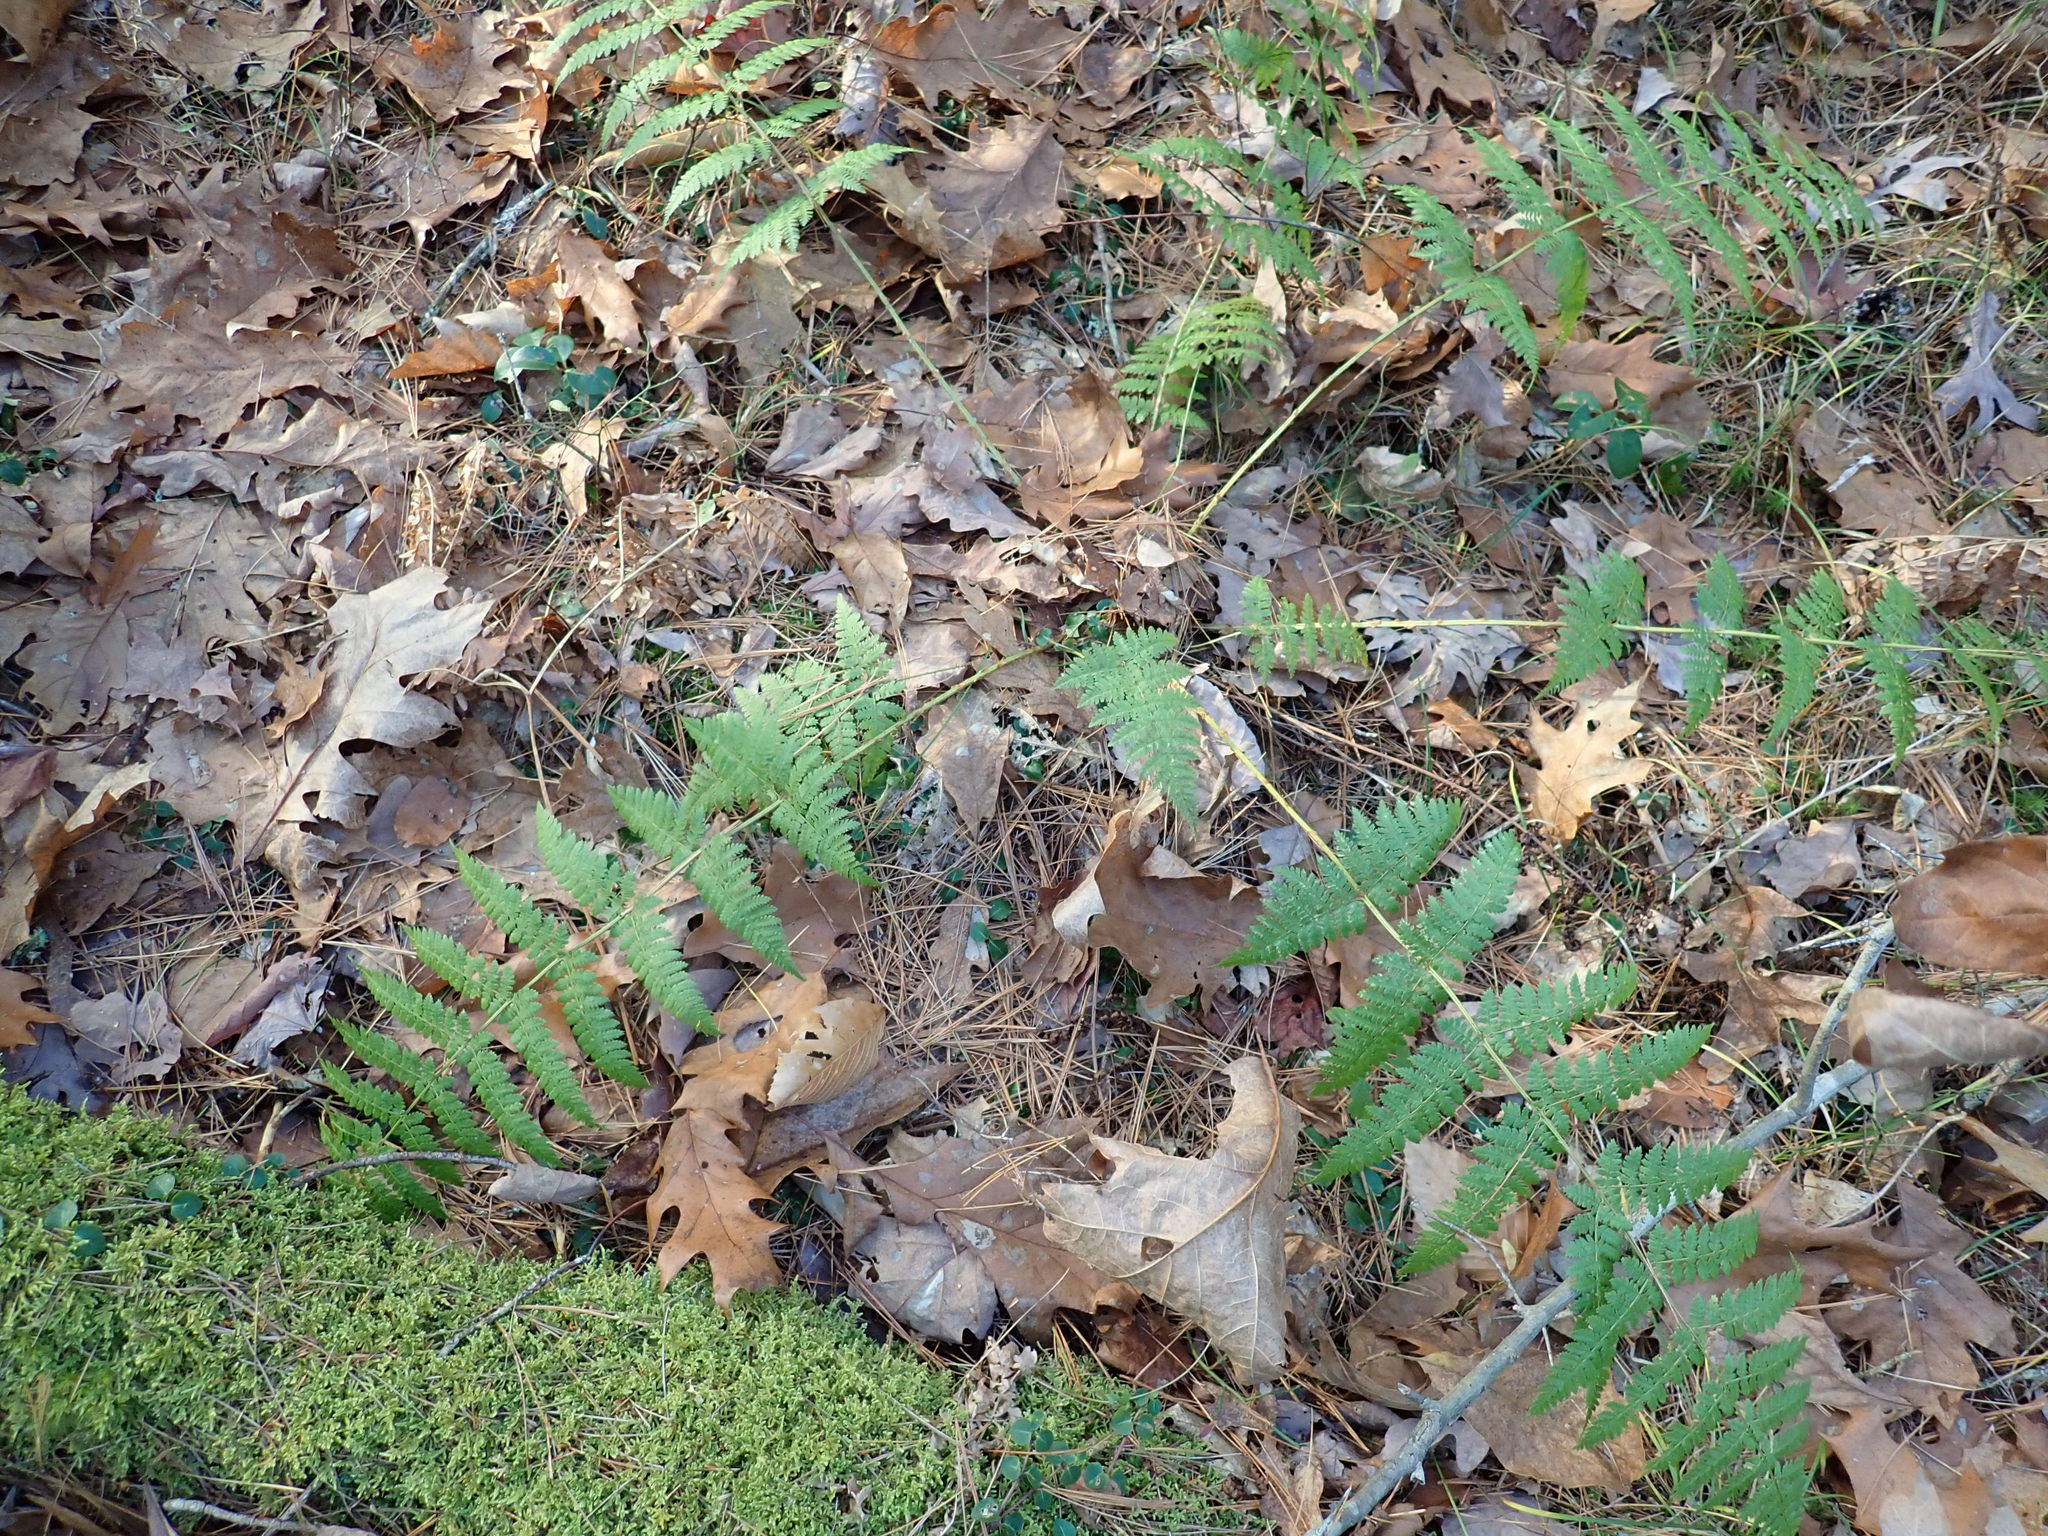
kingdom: Plantae
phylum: Tracheophyta
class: Polypodiopsida
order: Polypodiales
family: Dryopteridaceae
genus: Dryopteris
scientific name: Dryopteris intermedia
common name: Evergreen wood fern
